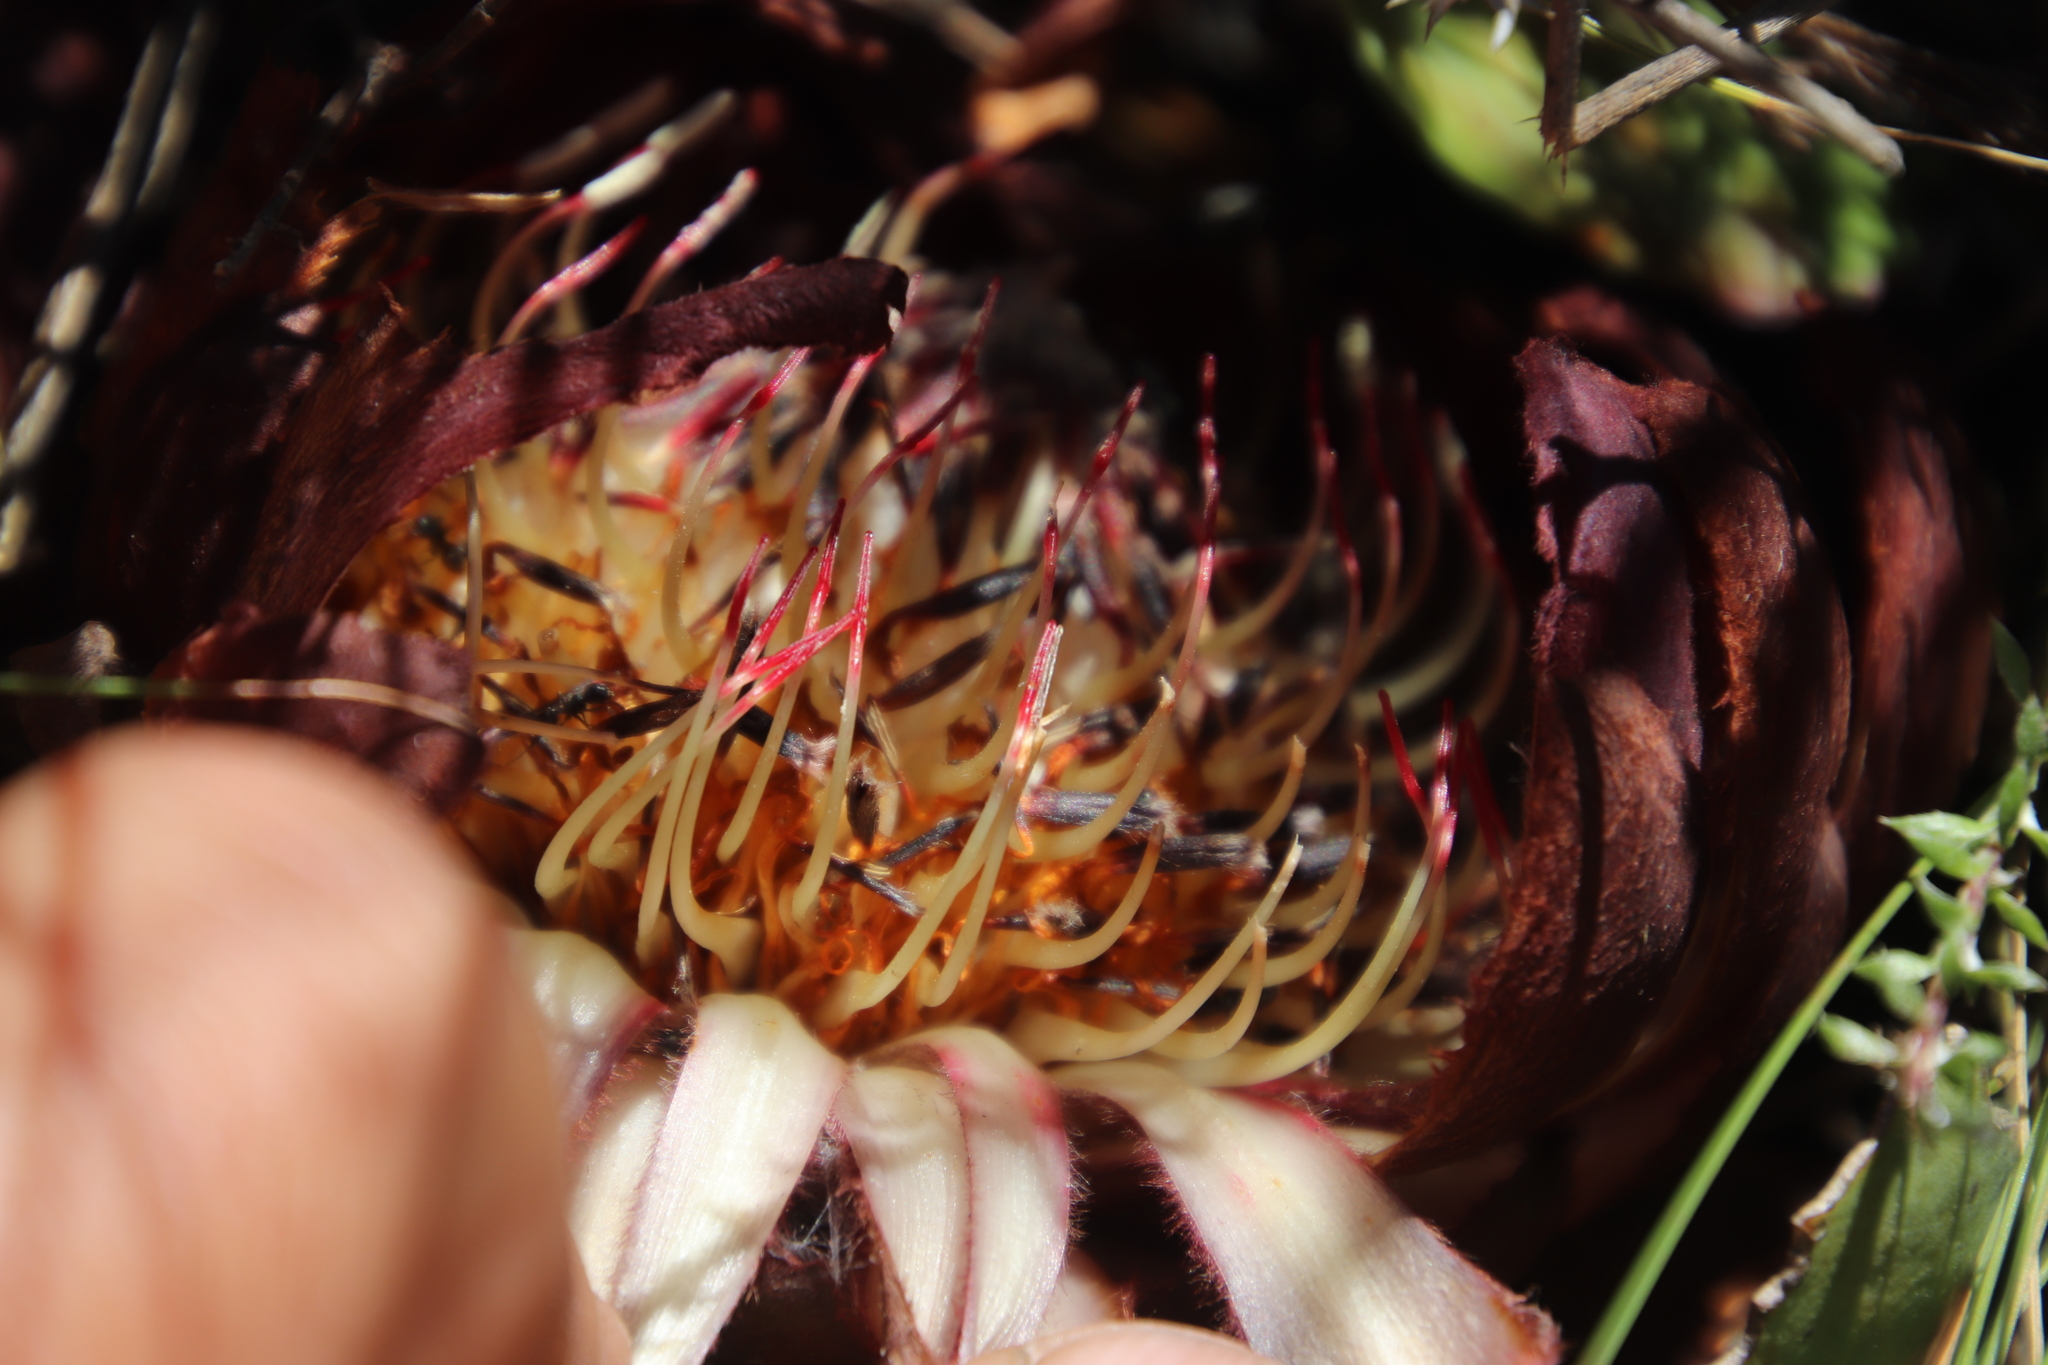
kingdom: Plantae
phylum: Tracheophyta
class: Magnoliopsida
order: Proteales
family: Proteaceae
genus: Protea
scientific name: Protea amplexicaulis
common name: Clasping-leaf sugarbush
